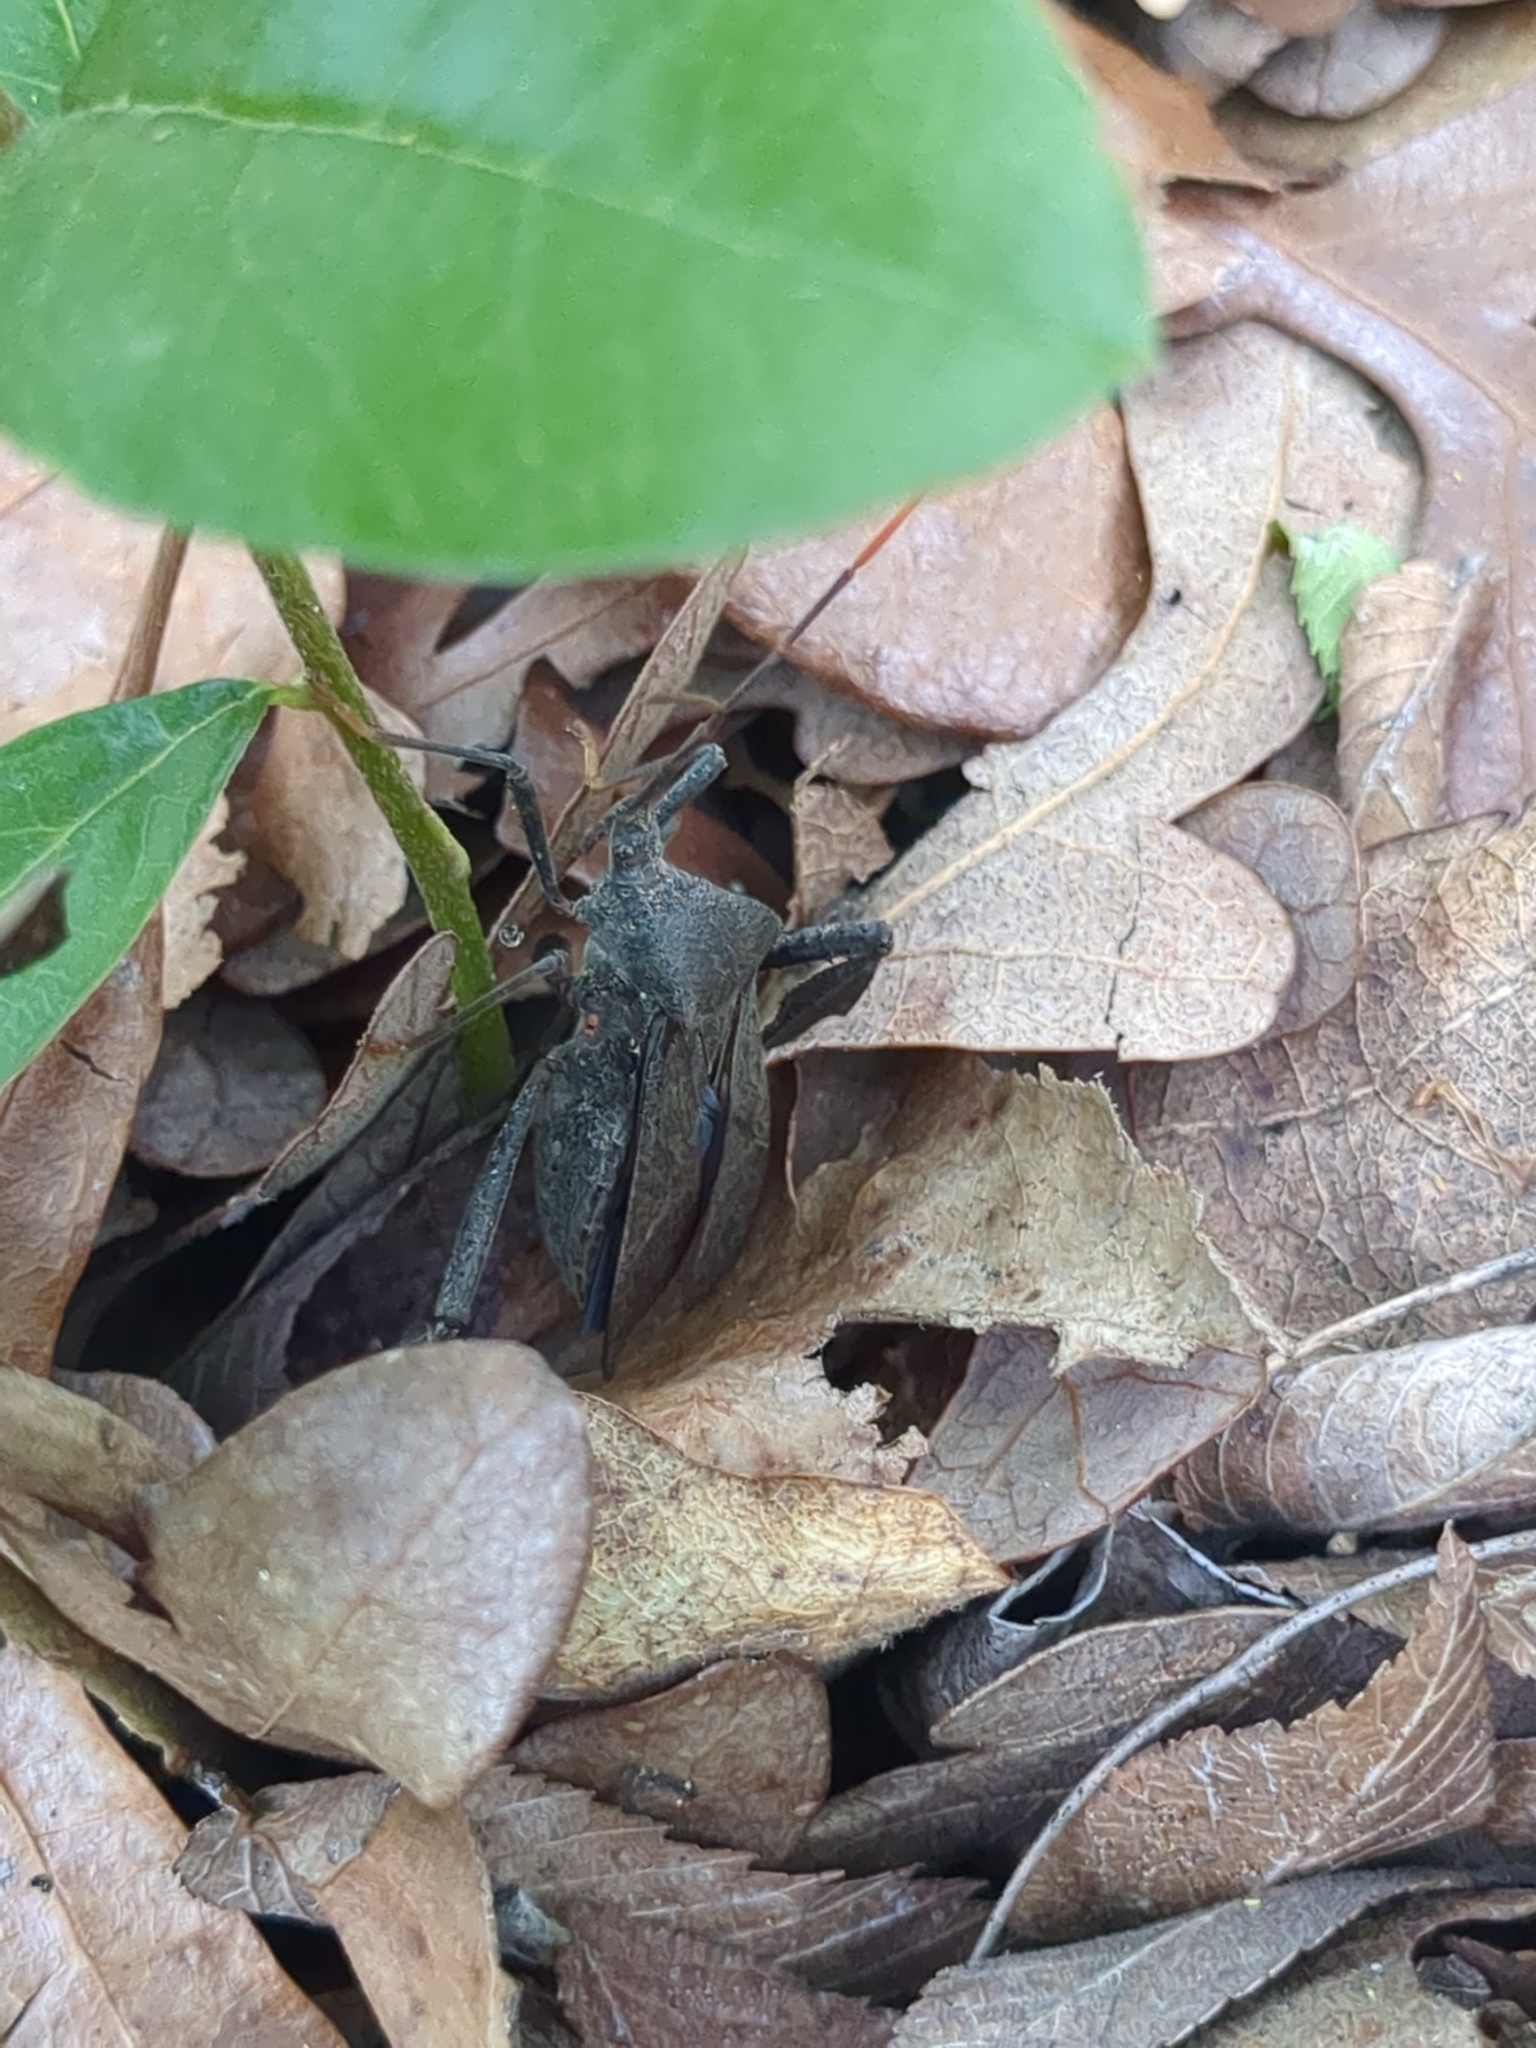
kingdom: Animalia
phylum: Arthropoda
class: Insecta
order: Hemiptera
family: Coreidae
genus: Acanthocephala
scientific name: Acanthocephala terminalis
